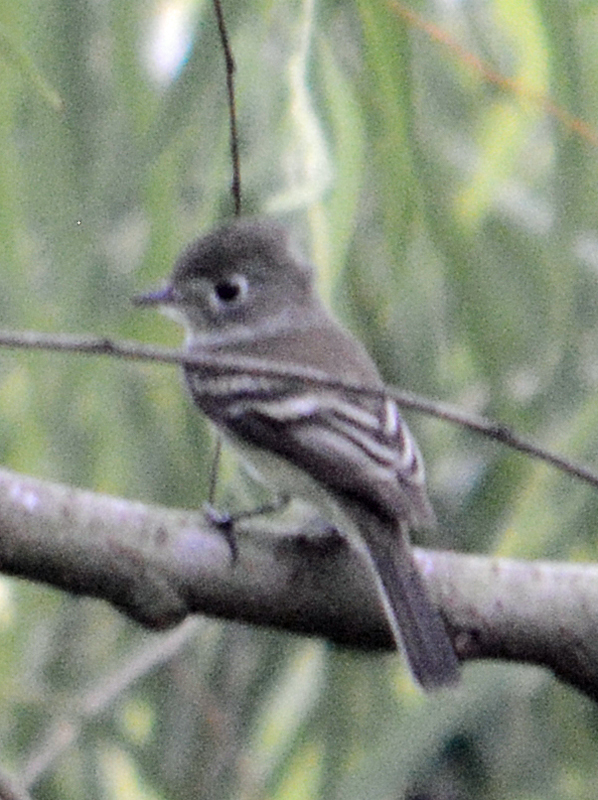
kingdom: Animalia
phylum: Chordata
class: Aves
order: Passeriformes
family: Tyrannidae
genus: Empidonax
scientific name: Empidonax minimus
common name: Least flycatcher
